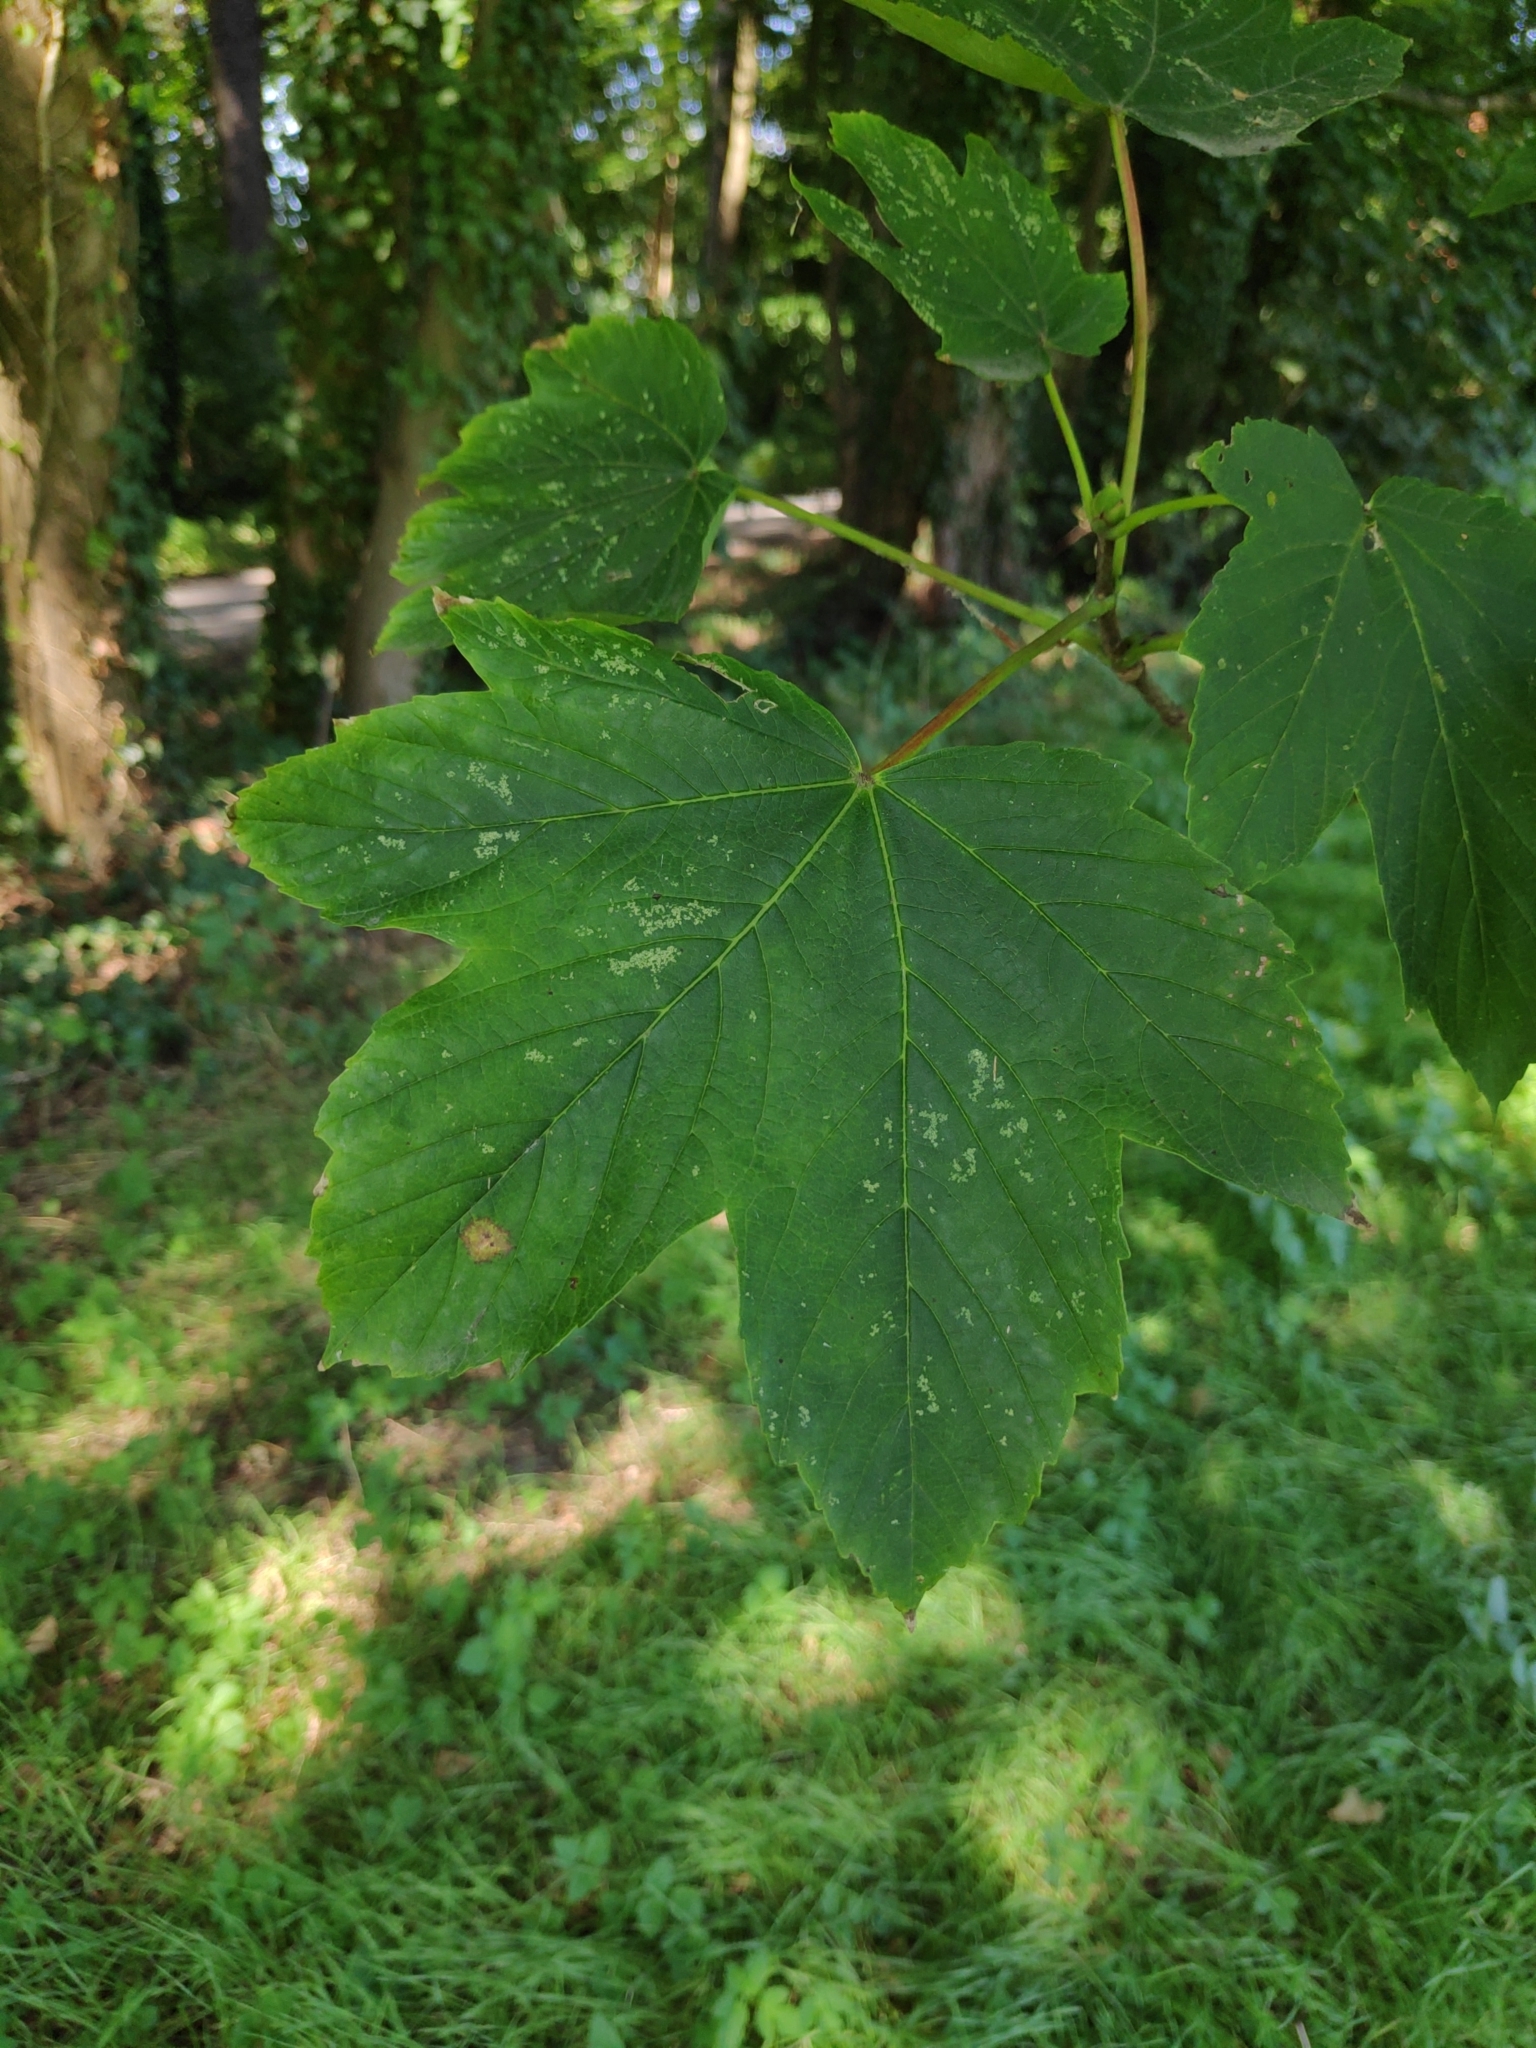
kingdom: Plantae
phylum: Tracheophyta
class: Magnoliopsida
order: Sapindales
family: Sapindaceae
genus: Acer
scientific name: Acer pseudoplatanus
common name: Sycamore
